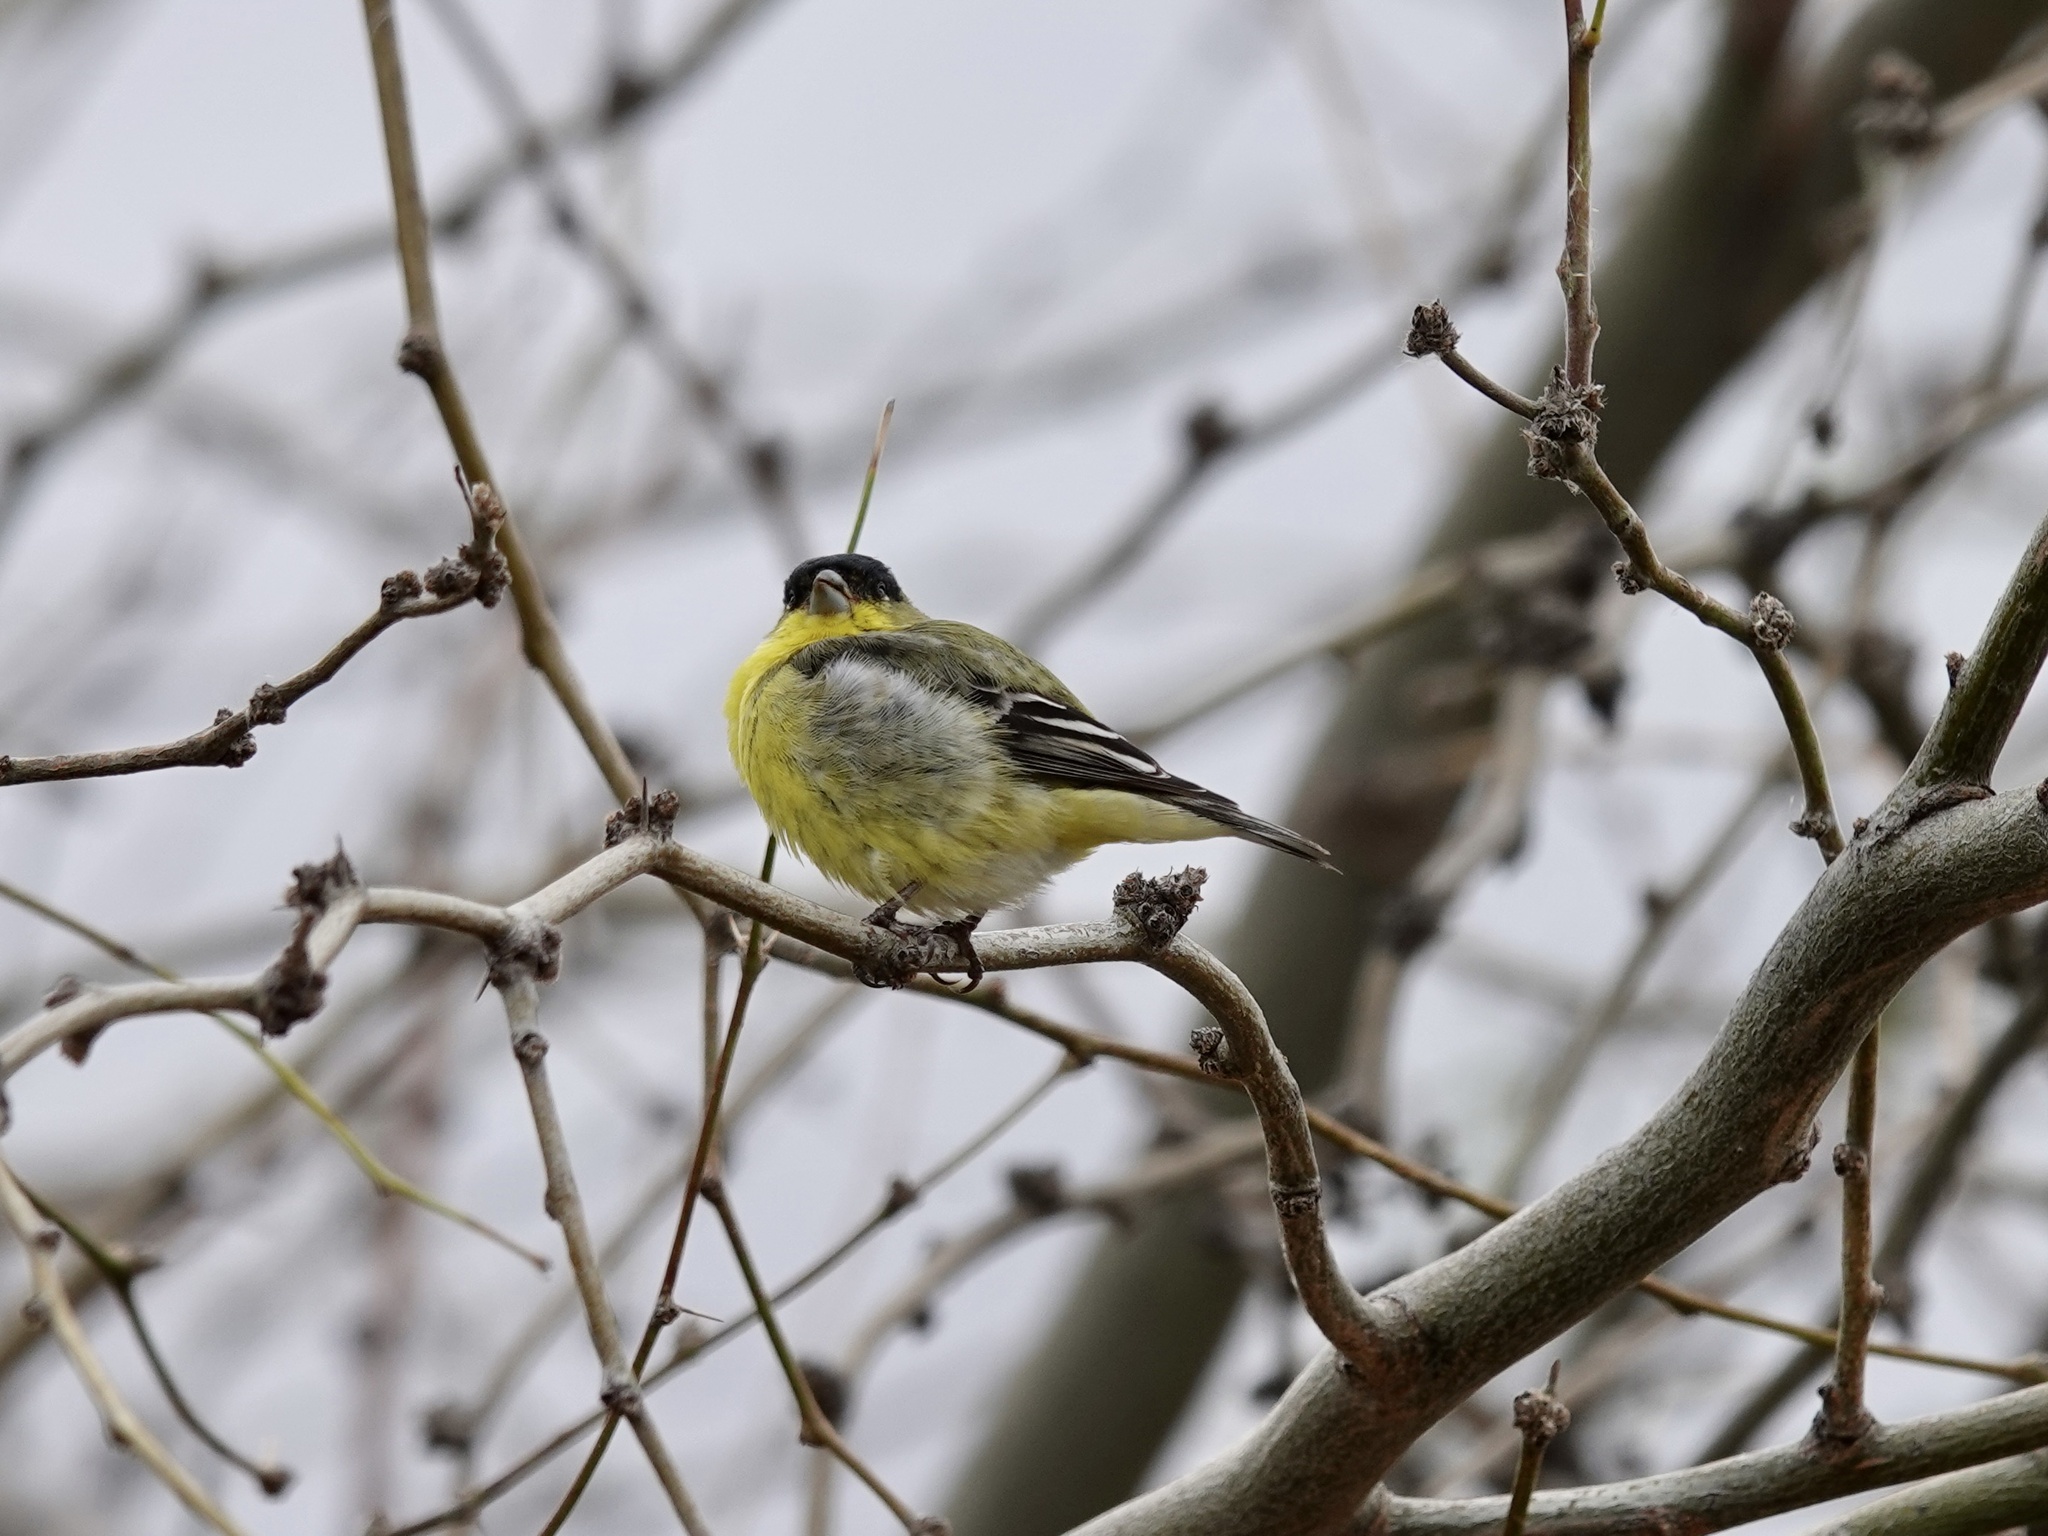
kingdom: Animalia
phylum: Chordata
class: Aves
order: Passeriformes
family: Fringillidae
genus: Spinus
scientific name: Spinus psaltria
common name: Lesser goldfinch
